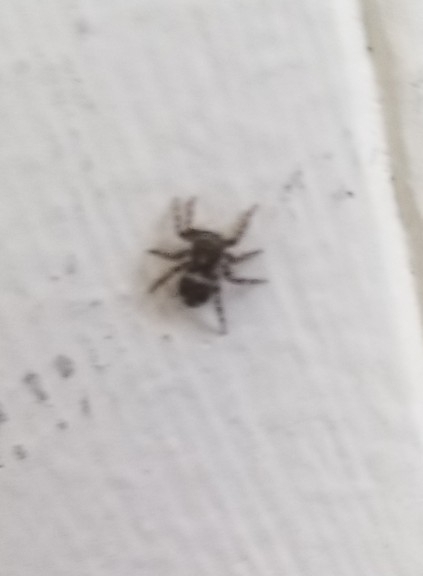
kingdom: Animalia
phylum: Arthropoda
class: Arachnida
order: Araneae
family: Salticidae
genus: Pseudeuophrys
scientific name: Pseudeuophrys erratica
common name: Jumping spider
